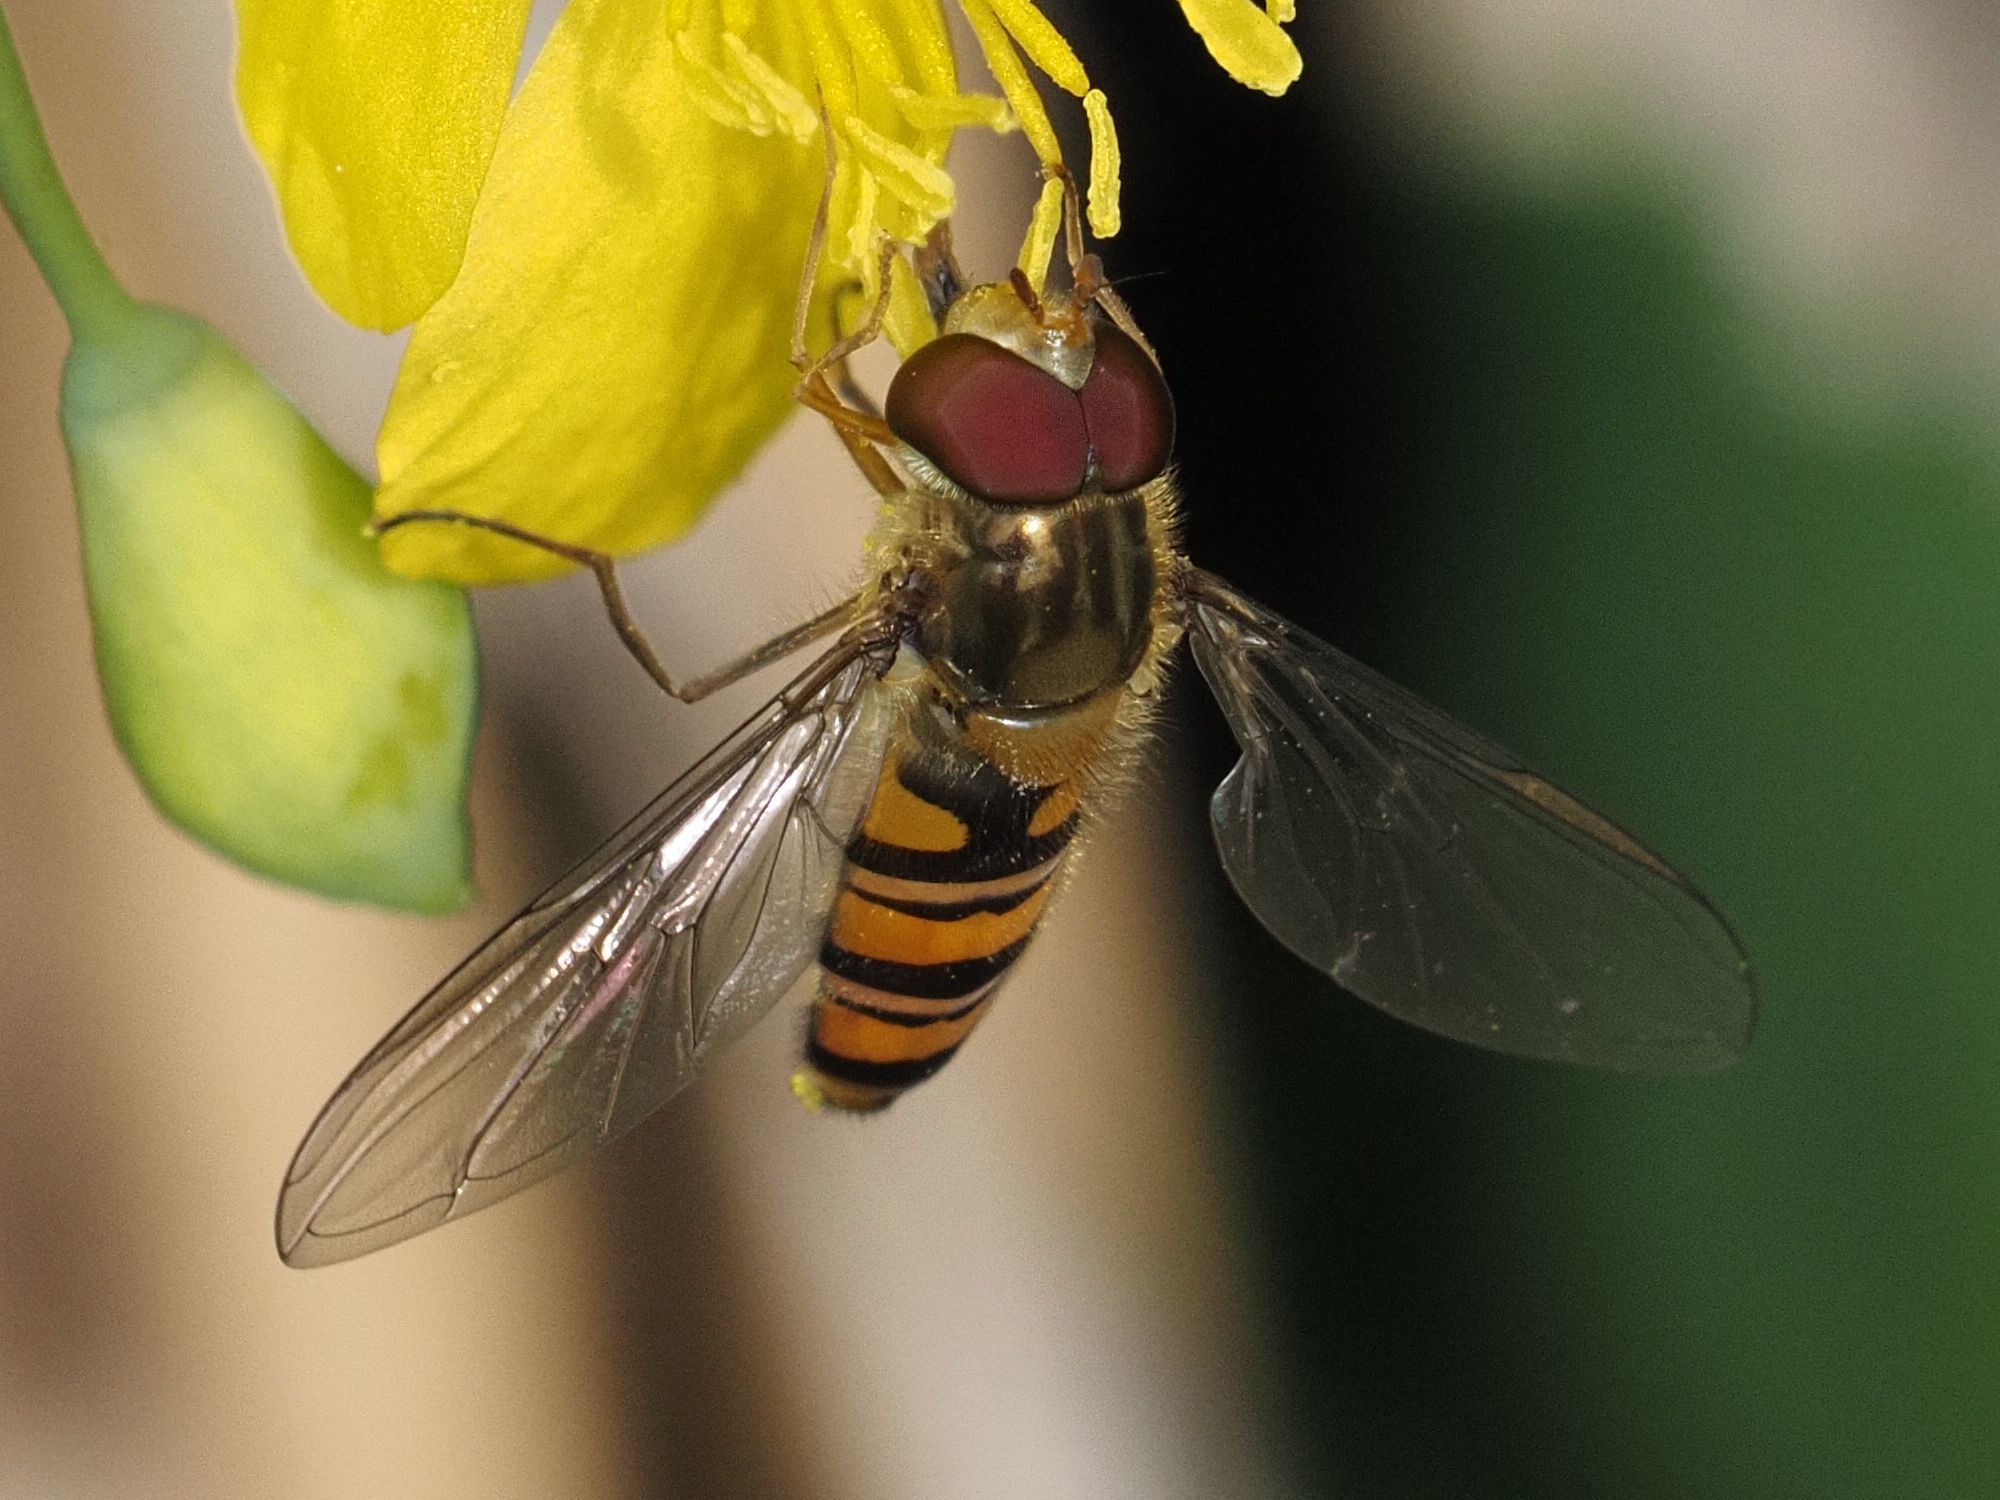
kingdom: Animalia
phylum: Arthropoda
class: Insecta
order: Diptera
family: Syrphidae
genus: Episyrphus
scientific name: Episyrphus balteatus
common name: Marmalade hoverfly
